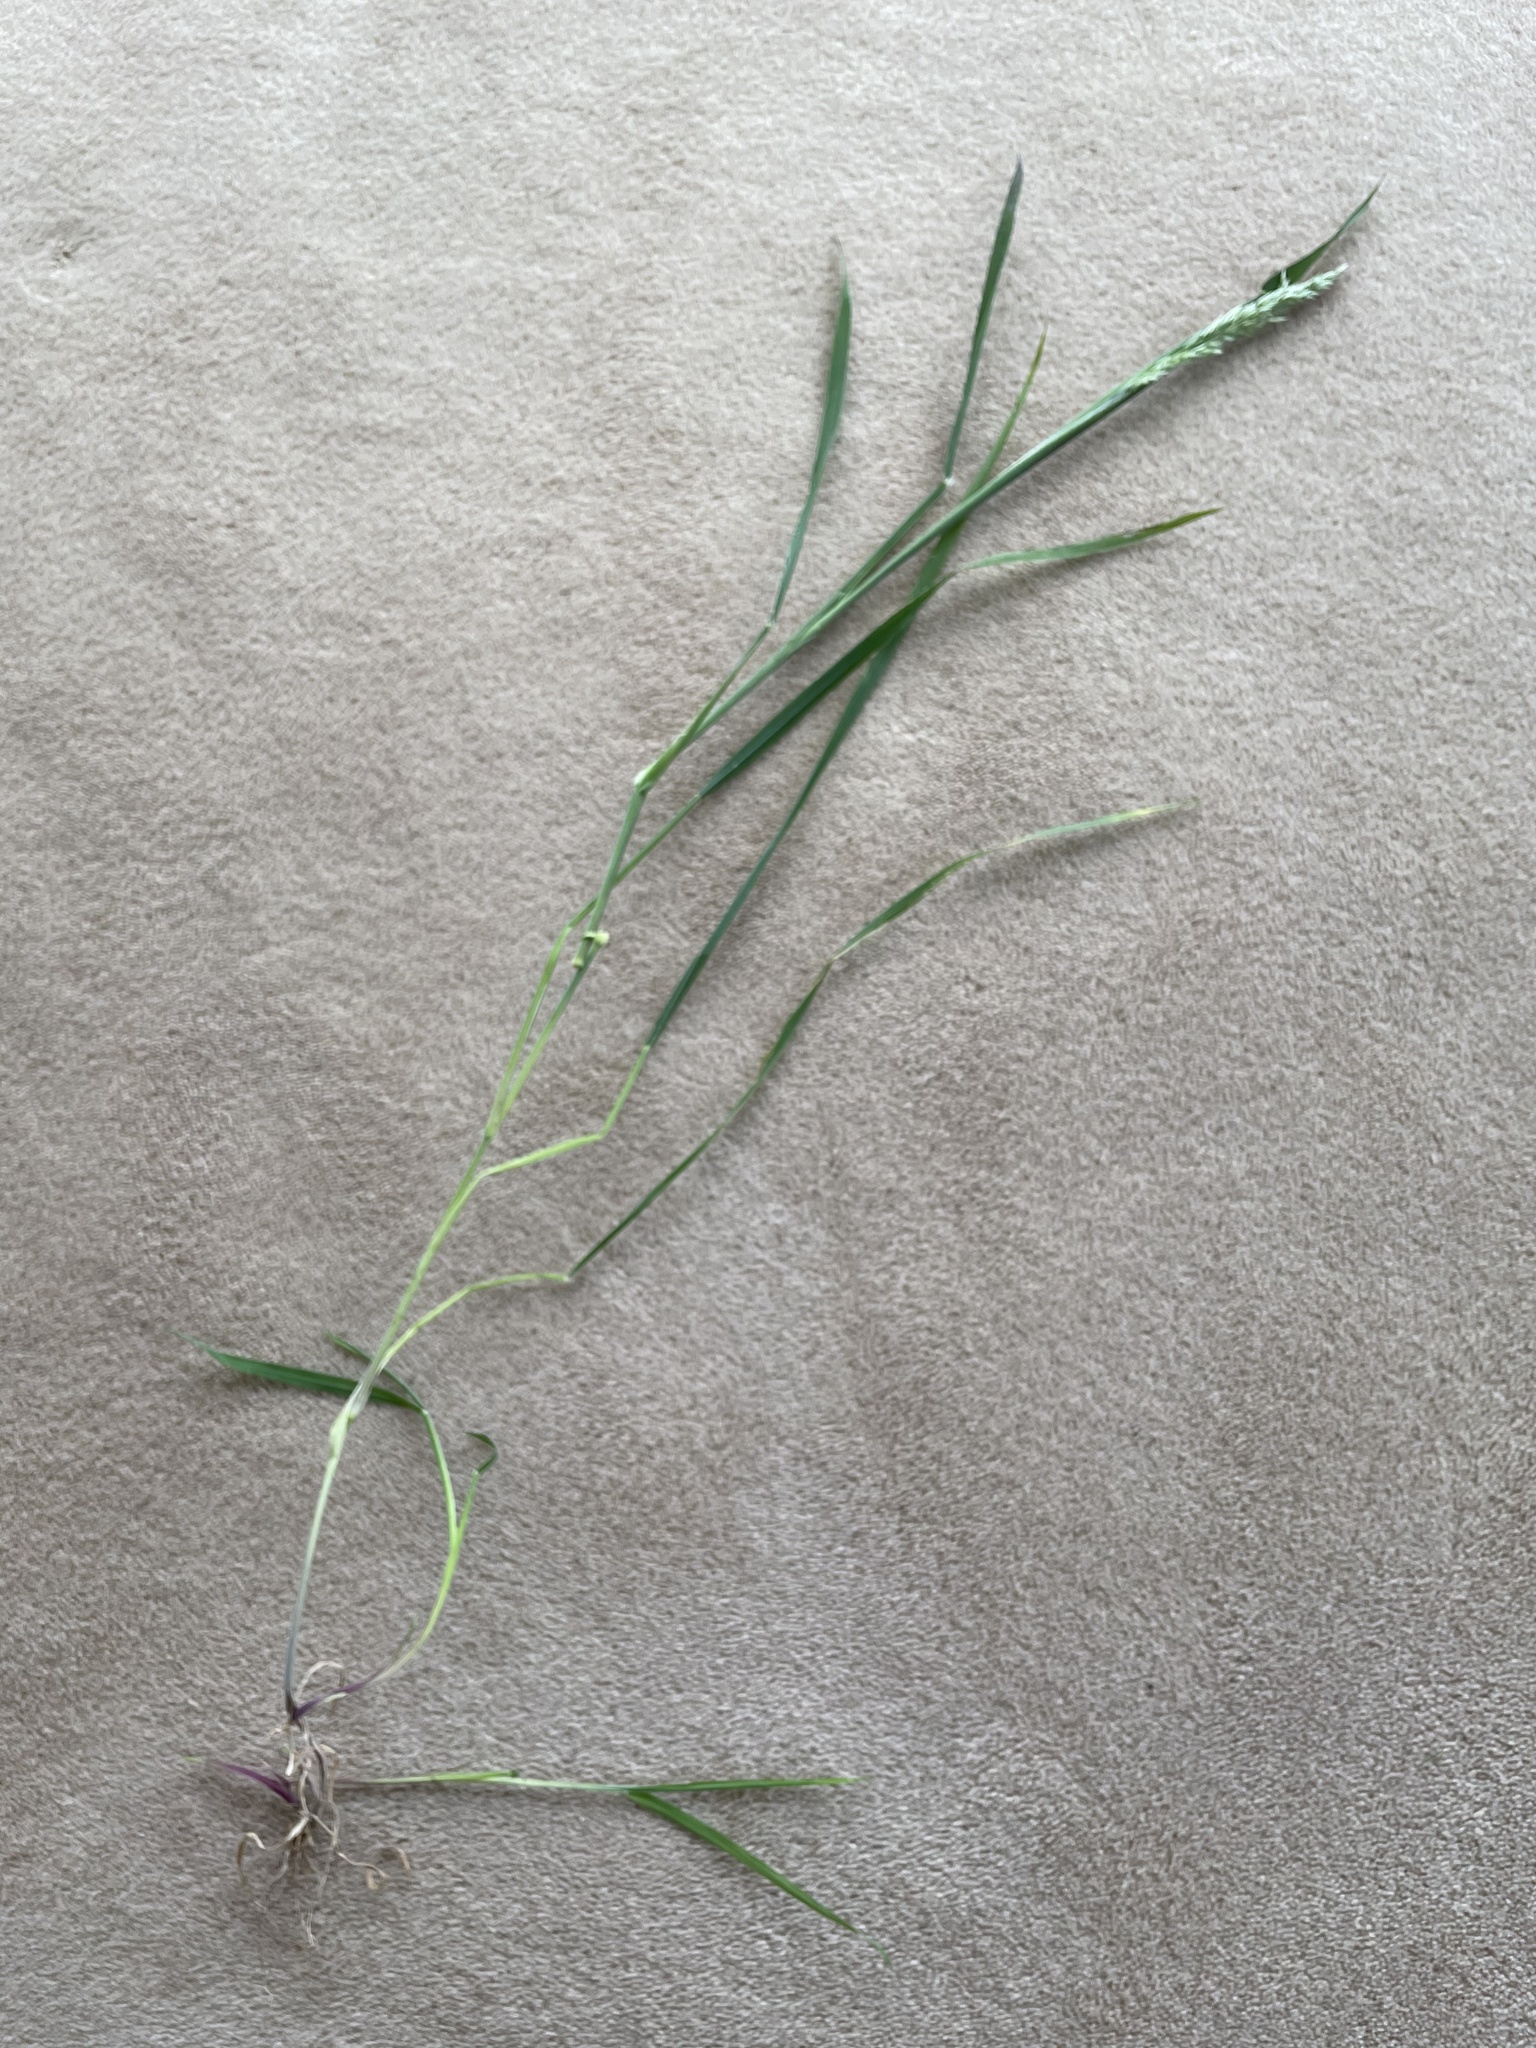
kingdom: Plantae
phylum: Tracheophyta
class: Liliopsida
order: Poales
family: Poaceae
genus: Holcus
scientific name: Holcus lanatus
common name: Yorkshire-fog
